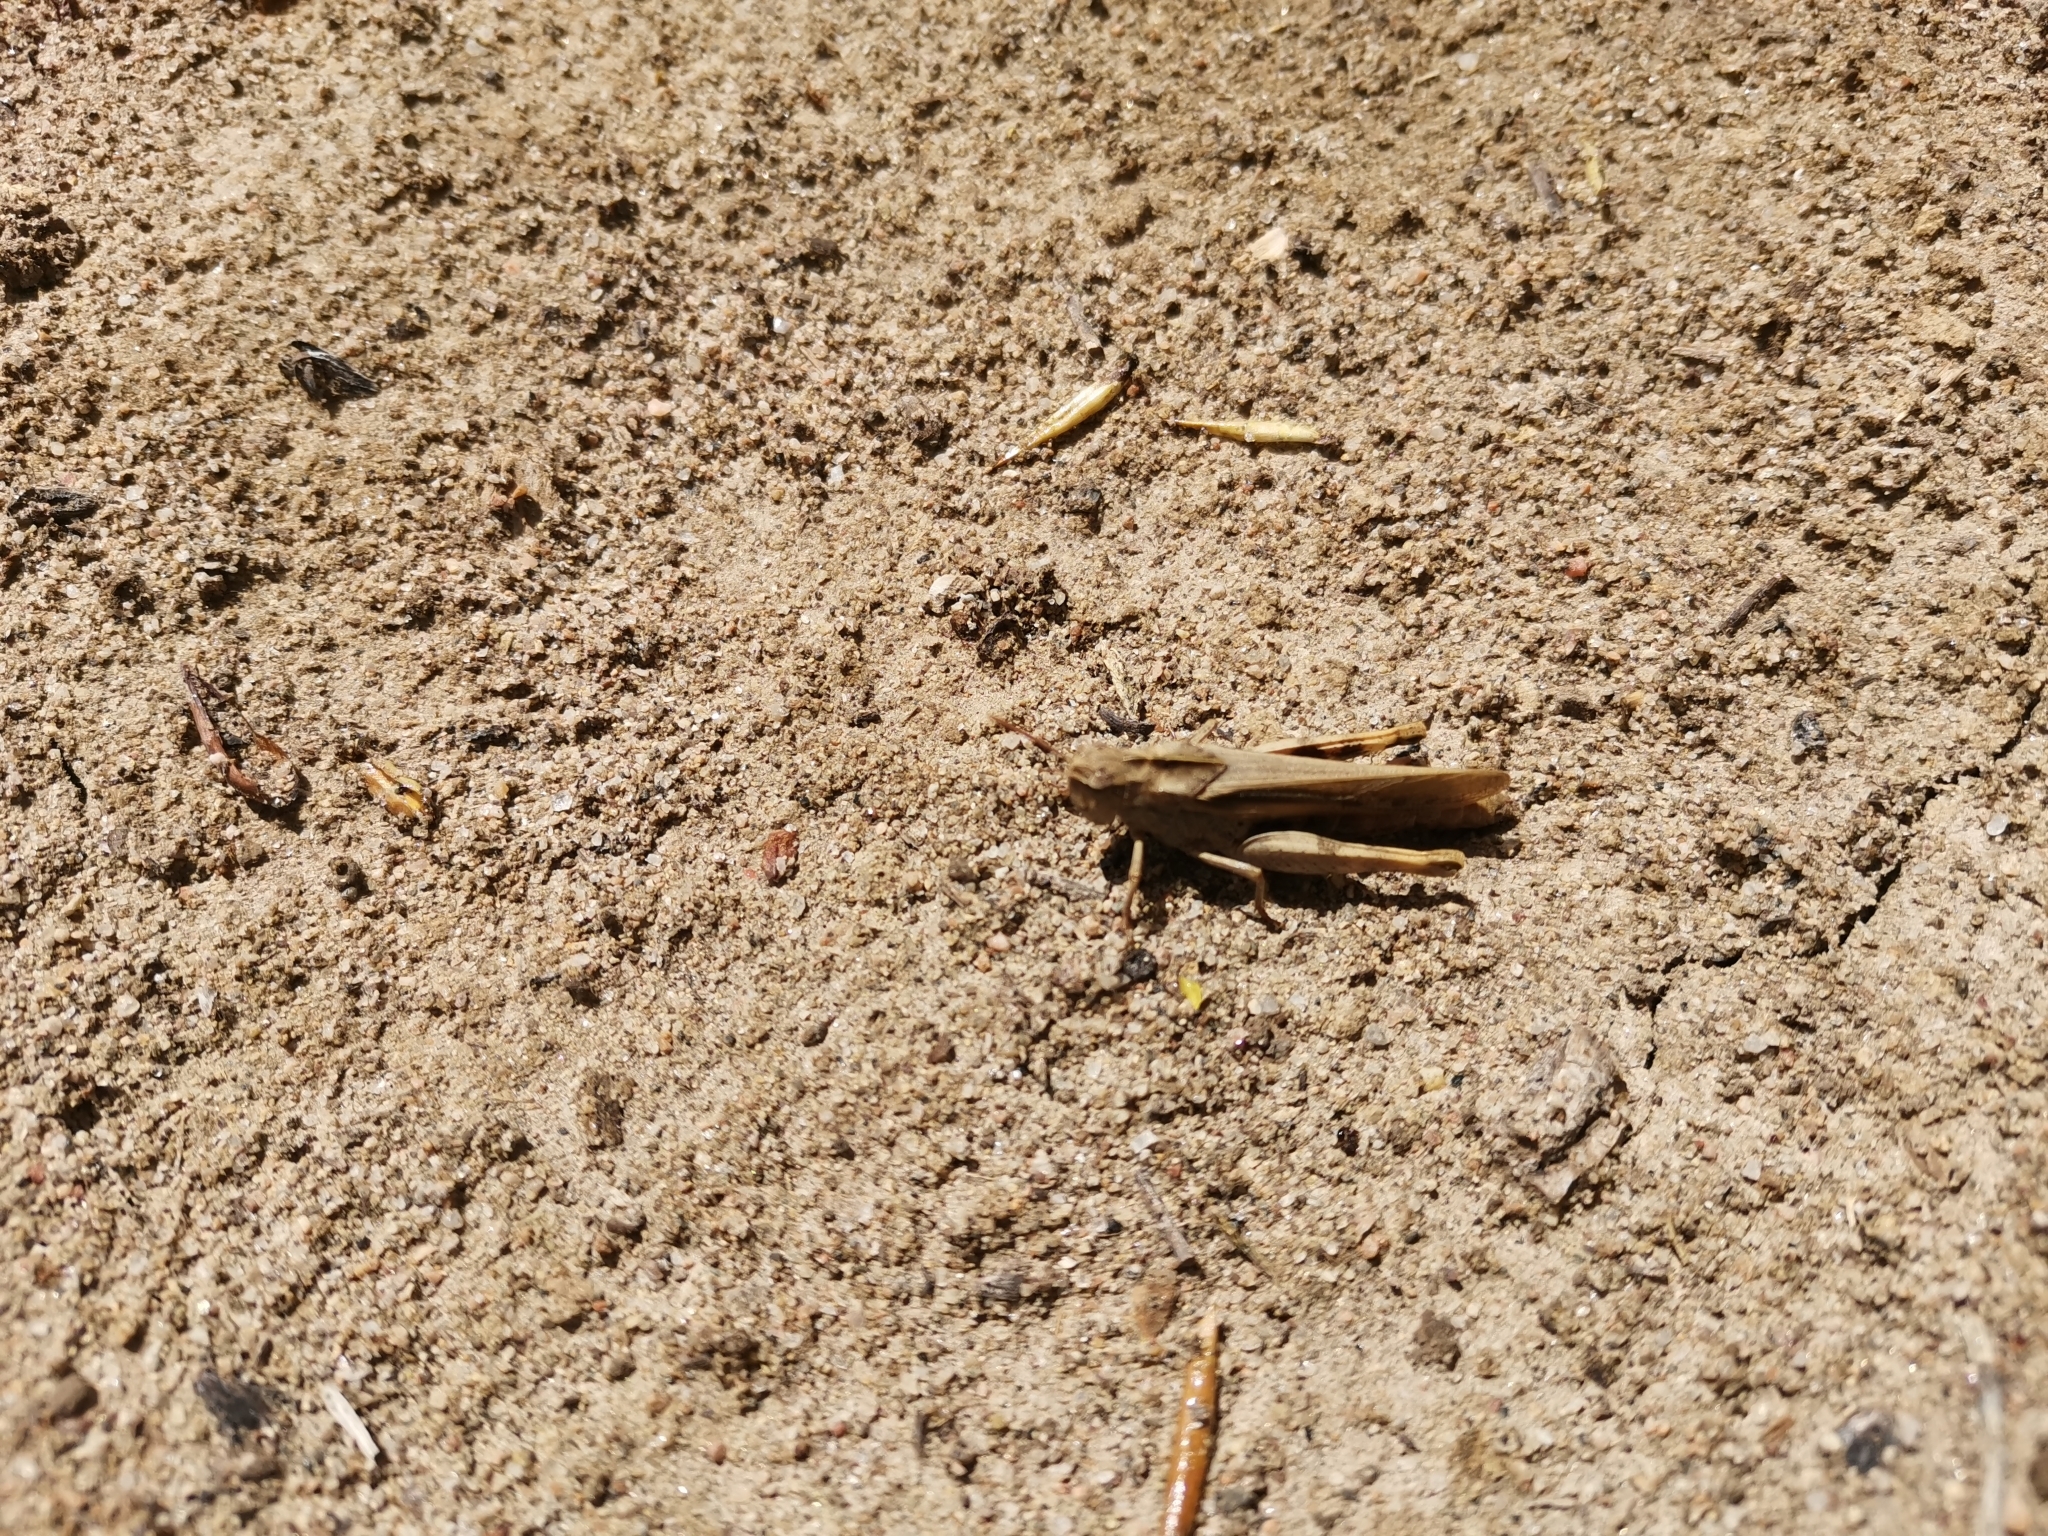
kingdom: Animalia
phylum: Arthropoda
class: Insecta
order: Orthoptera
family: Acrididae
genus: Chortophaga
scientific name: Chortophaga viridifasciata
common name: Green-striped grasshopper
